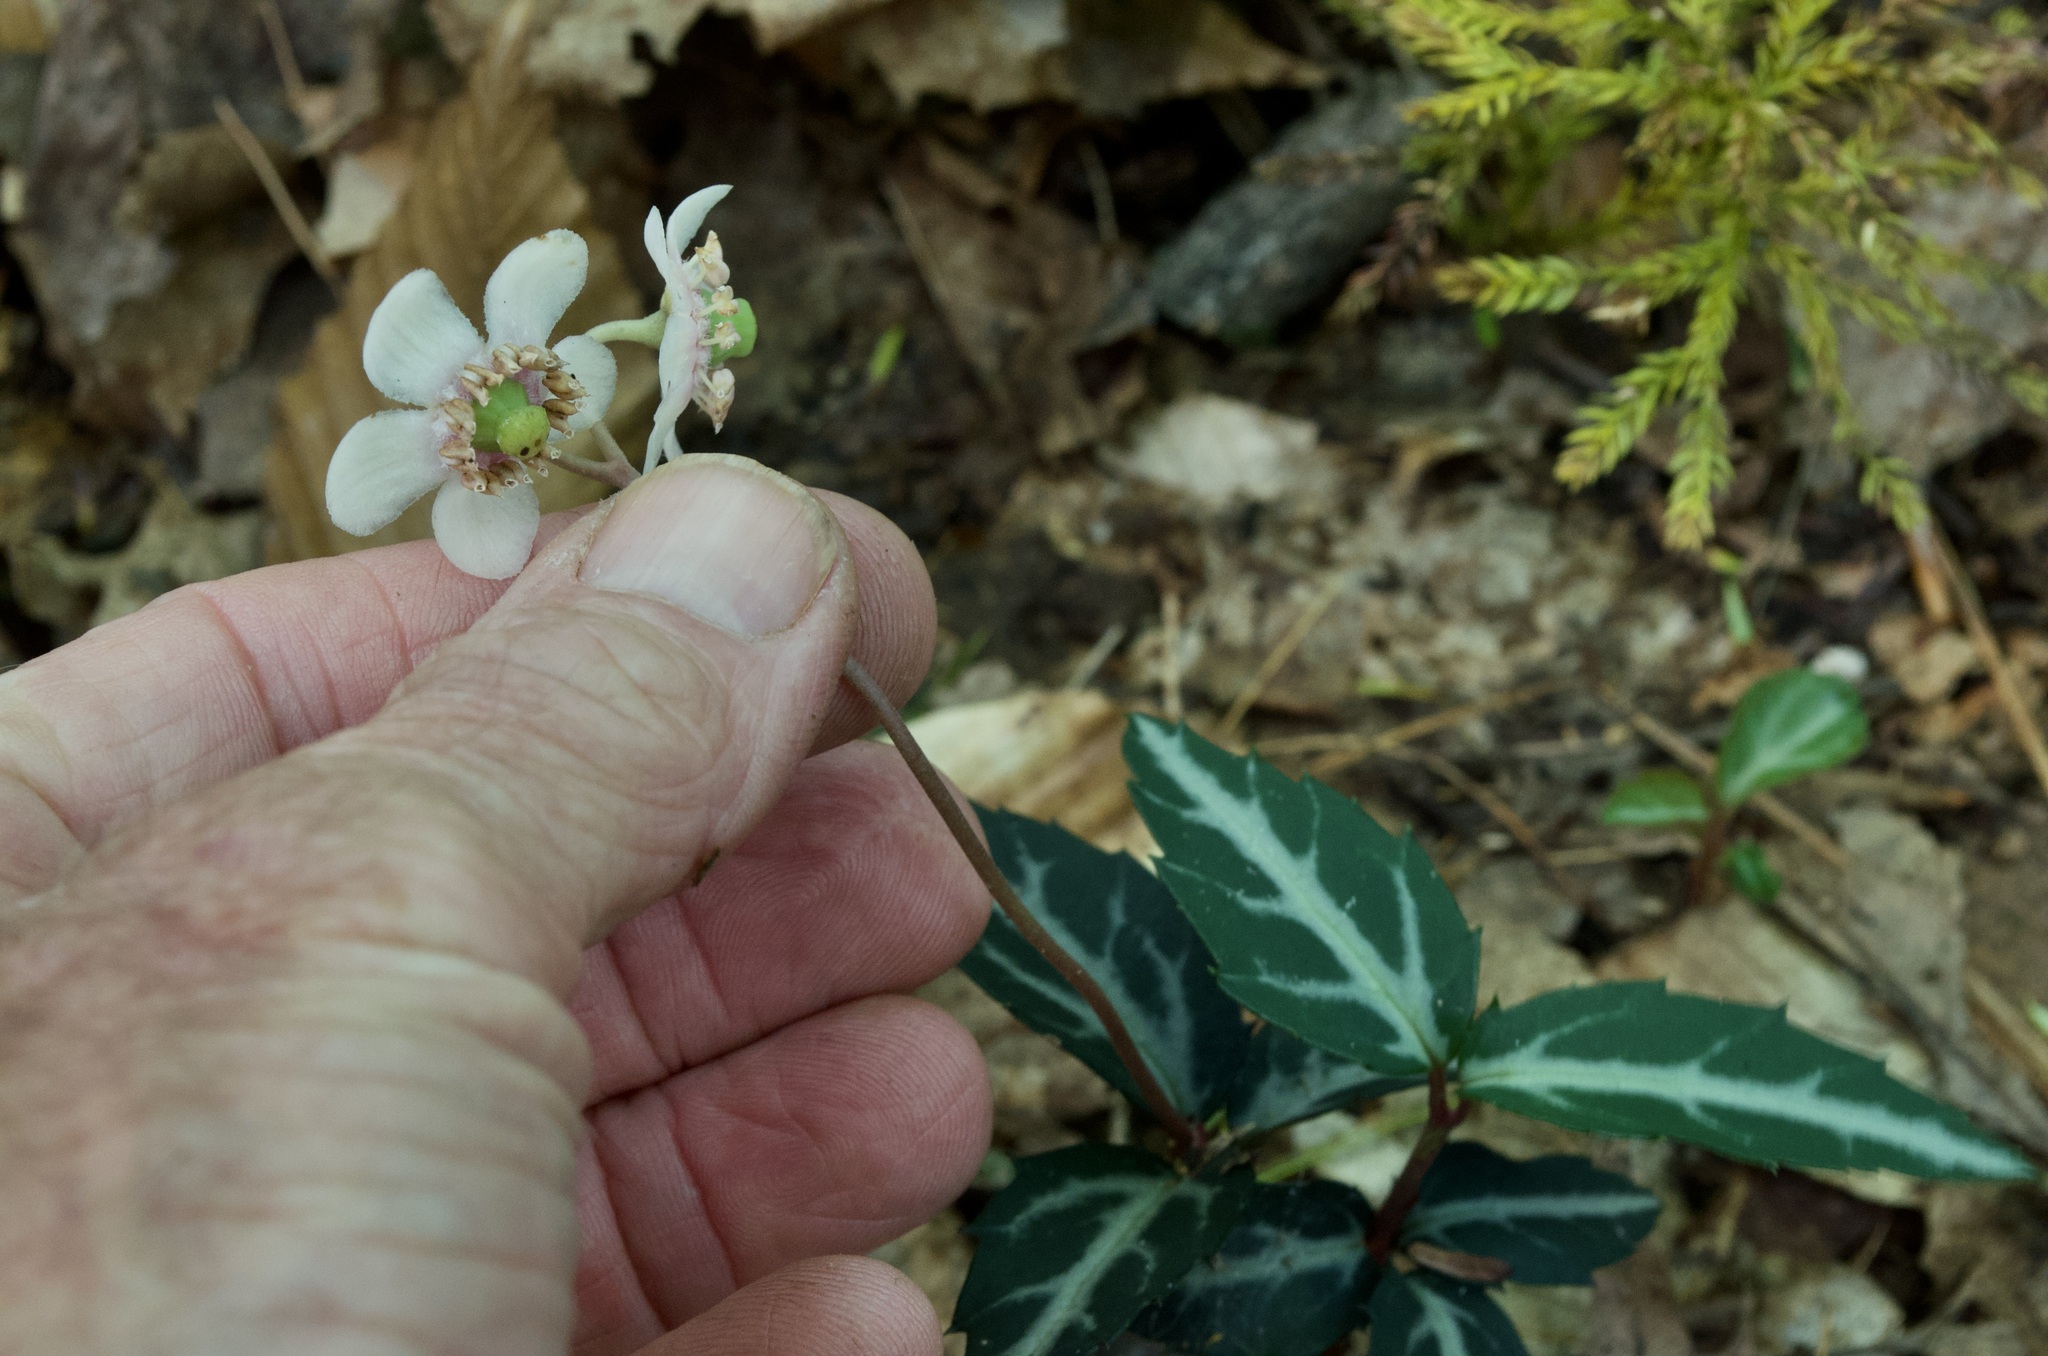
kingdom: Plantae
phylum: Tracheophyta
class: Magnoliopsida
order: Ericales
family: Ericaceae
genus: Chimaphila
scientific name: Chimaphila maculata
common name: Spotted pipsissewa
